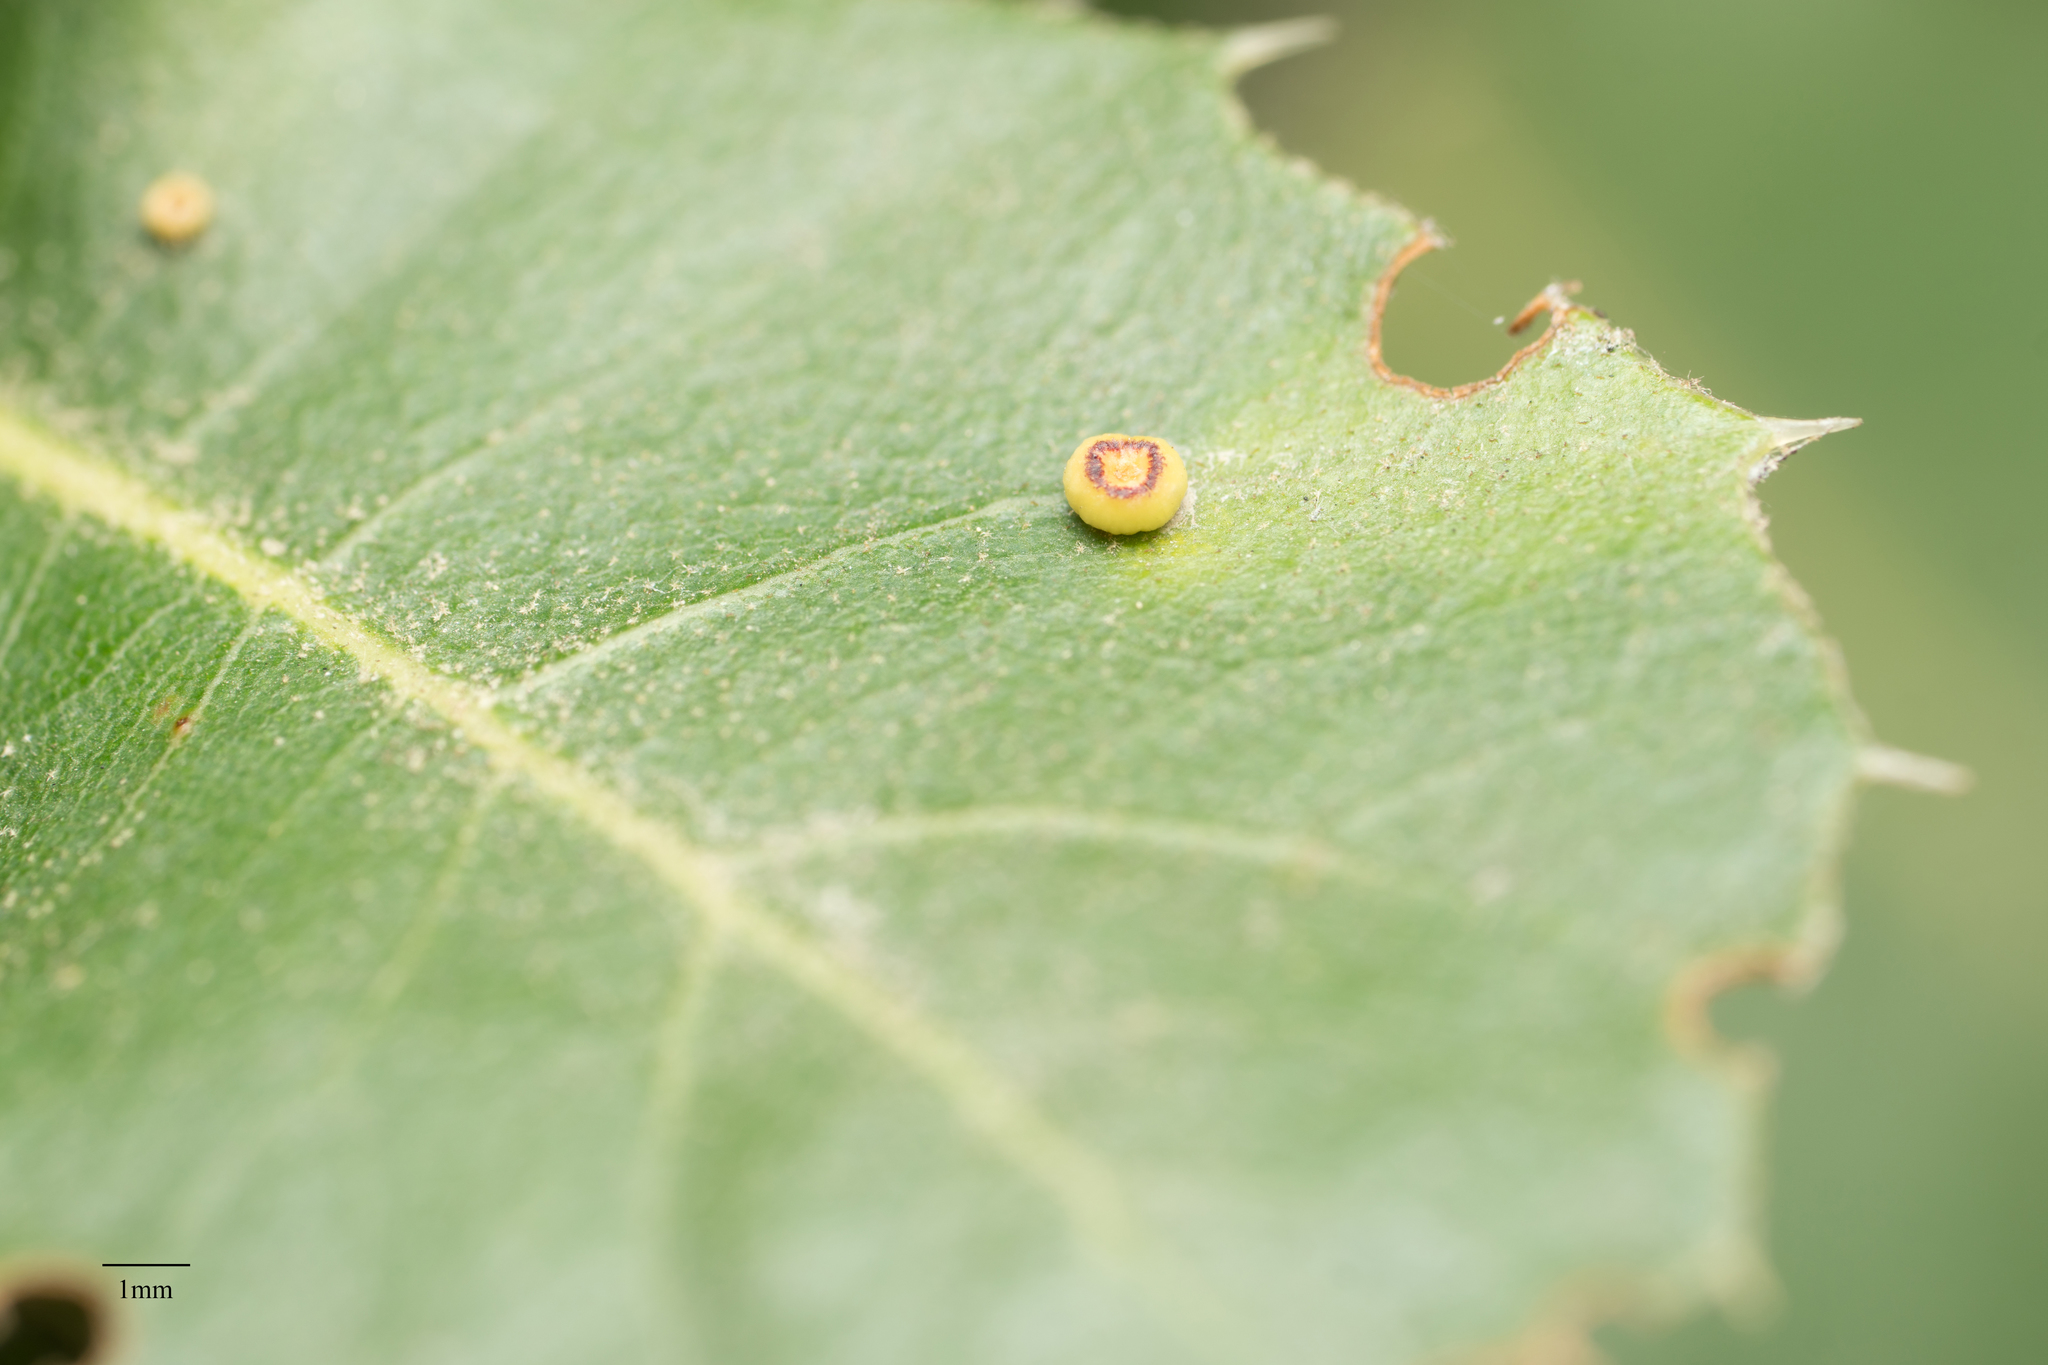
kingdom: Animalia
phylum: Arthropoda
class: Insecta
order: Hymenoptera
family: Cynipidae
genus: Dryocosmus
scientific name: Dryocosmus
